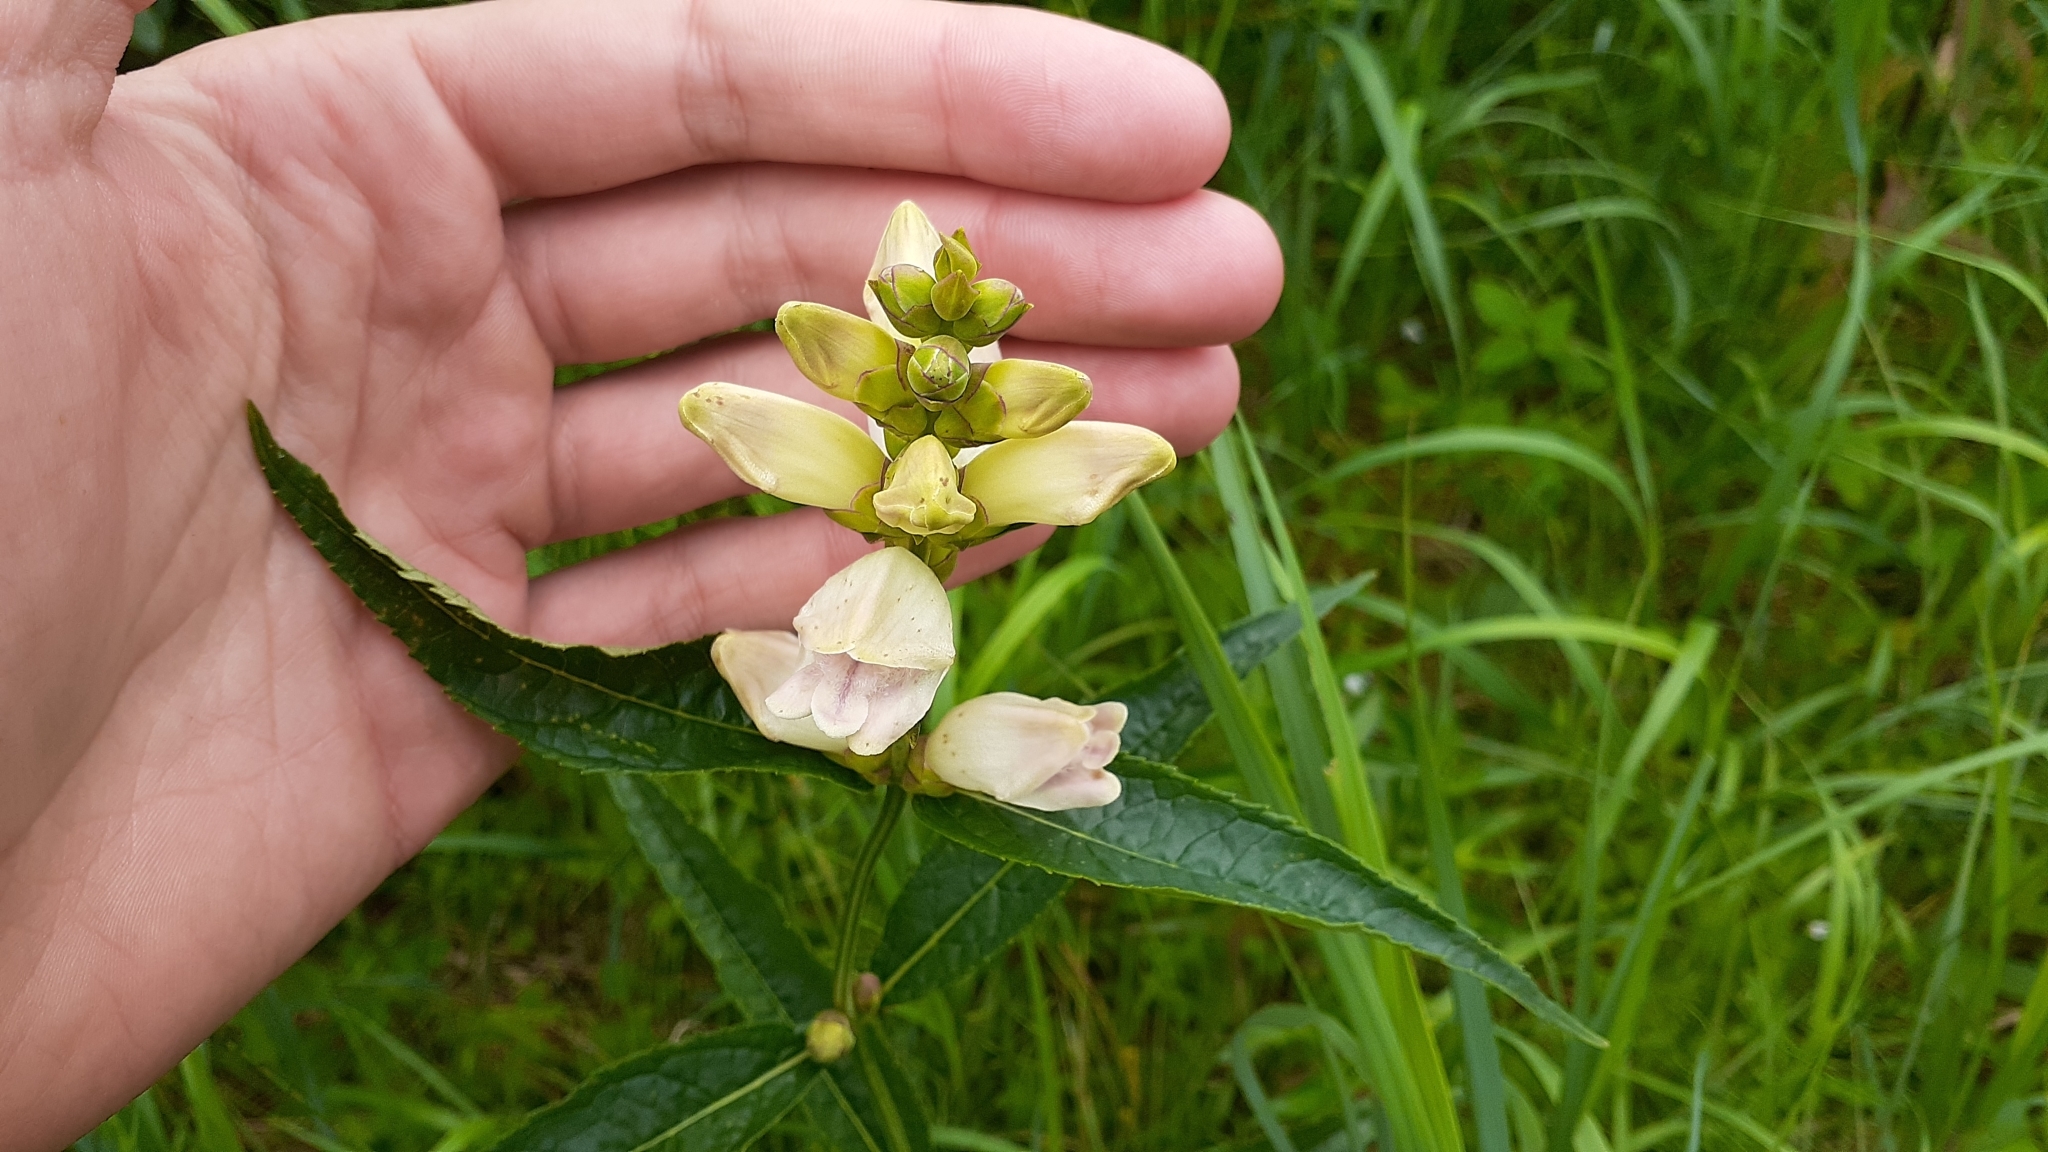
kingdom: Plantae
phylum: Tracheophyta
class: Magnoliopsida
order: Lamiales
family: Plantaginaceae
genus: Chelone
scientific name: Chelone glabra
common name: Snakehead
